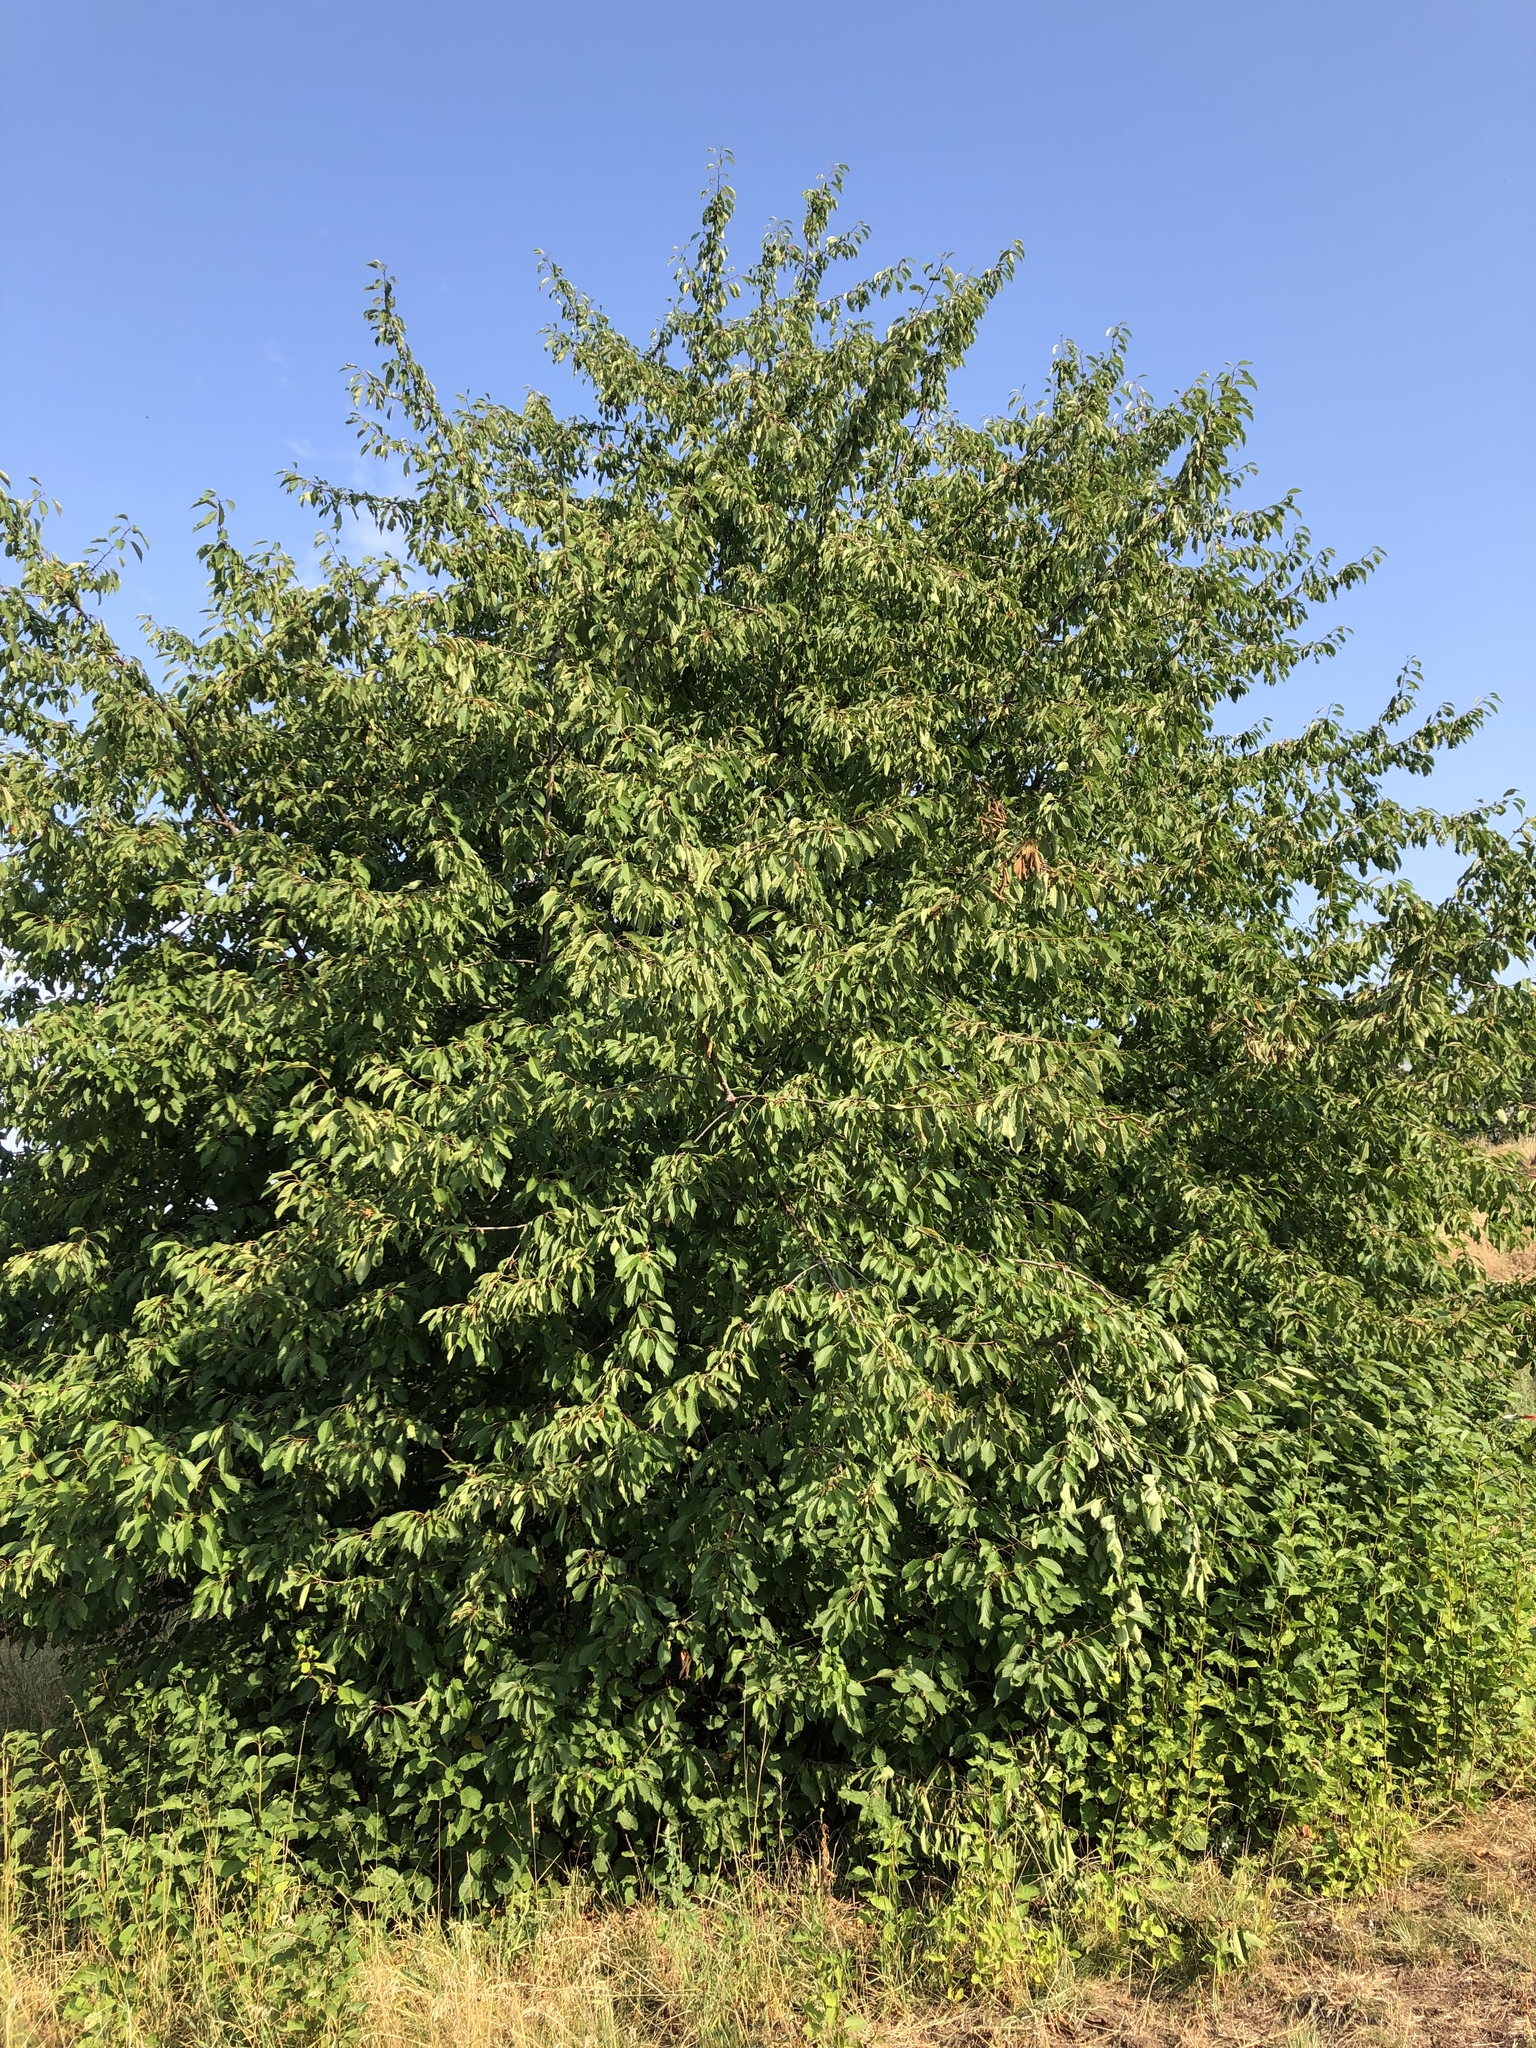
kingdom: Plantae
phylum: Tracheophyta
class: Magnoliopsida
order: Rosales
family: Rosaceae
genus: Prunus
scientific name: Prunus avium
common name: Sweet cherry
